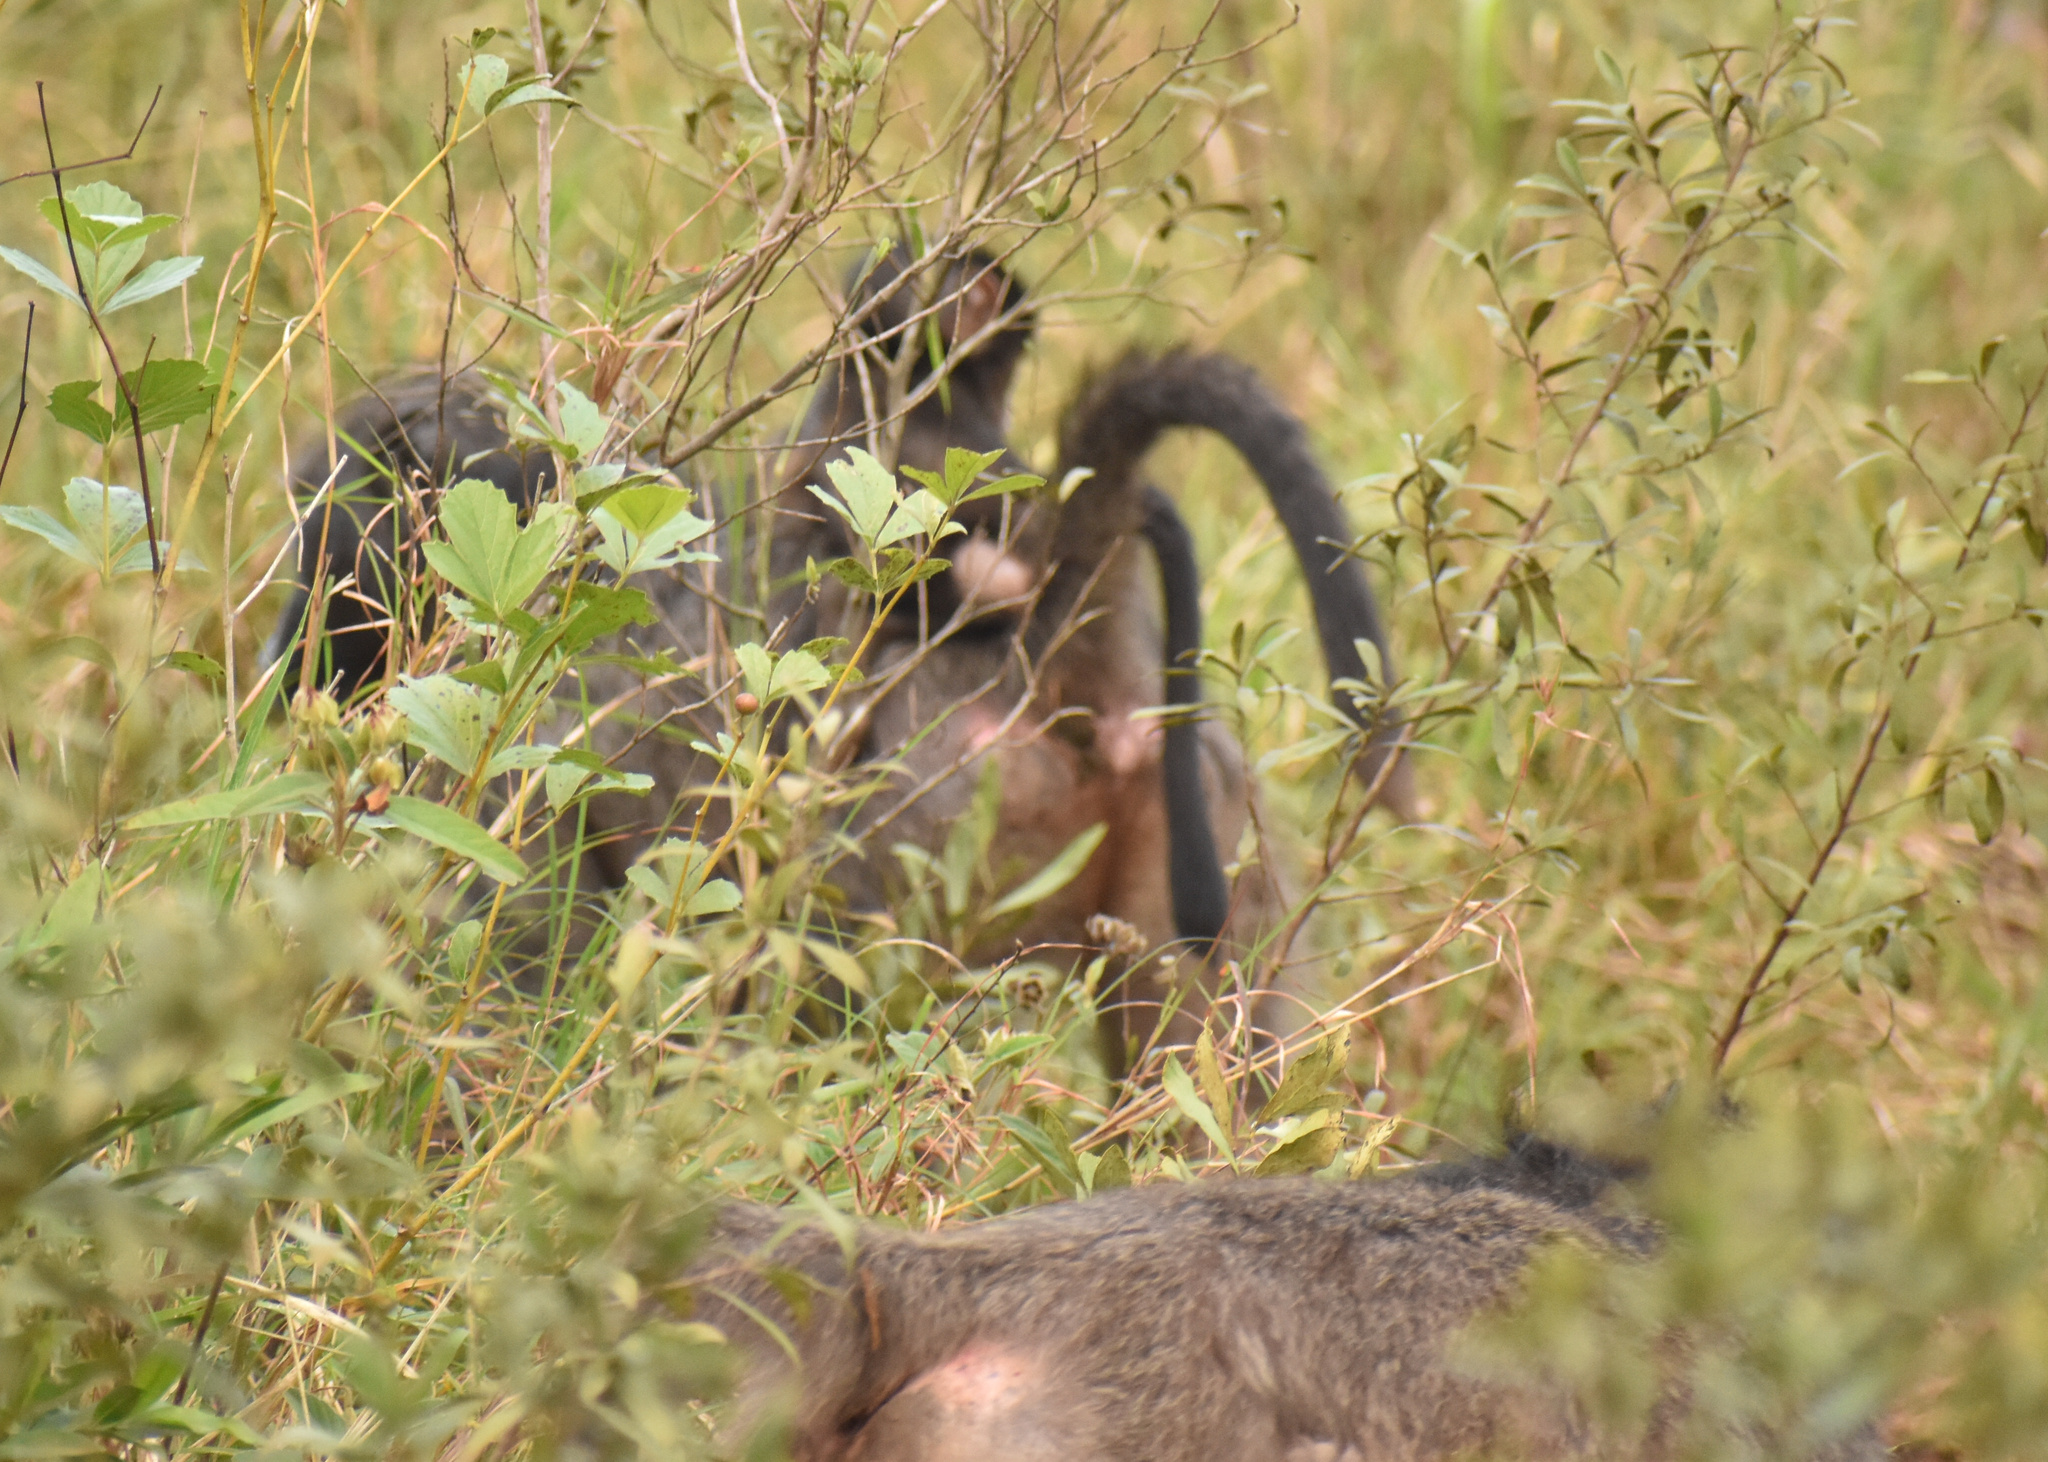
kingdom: Animalia
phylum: Chordata
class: Mammalia
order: Primates
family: Cercopithecidae
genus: Papio
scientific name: Papio ursinus
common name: Chacma baboon
